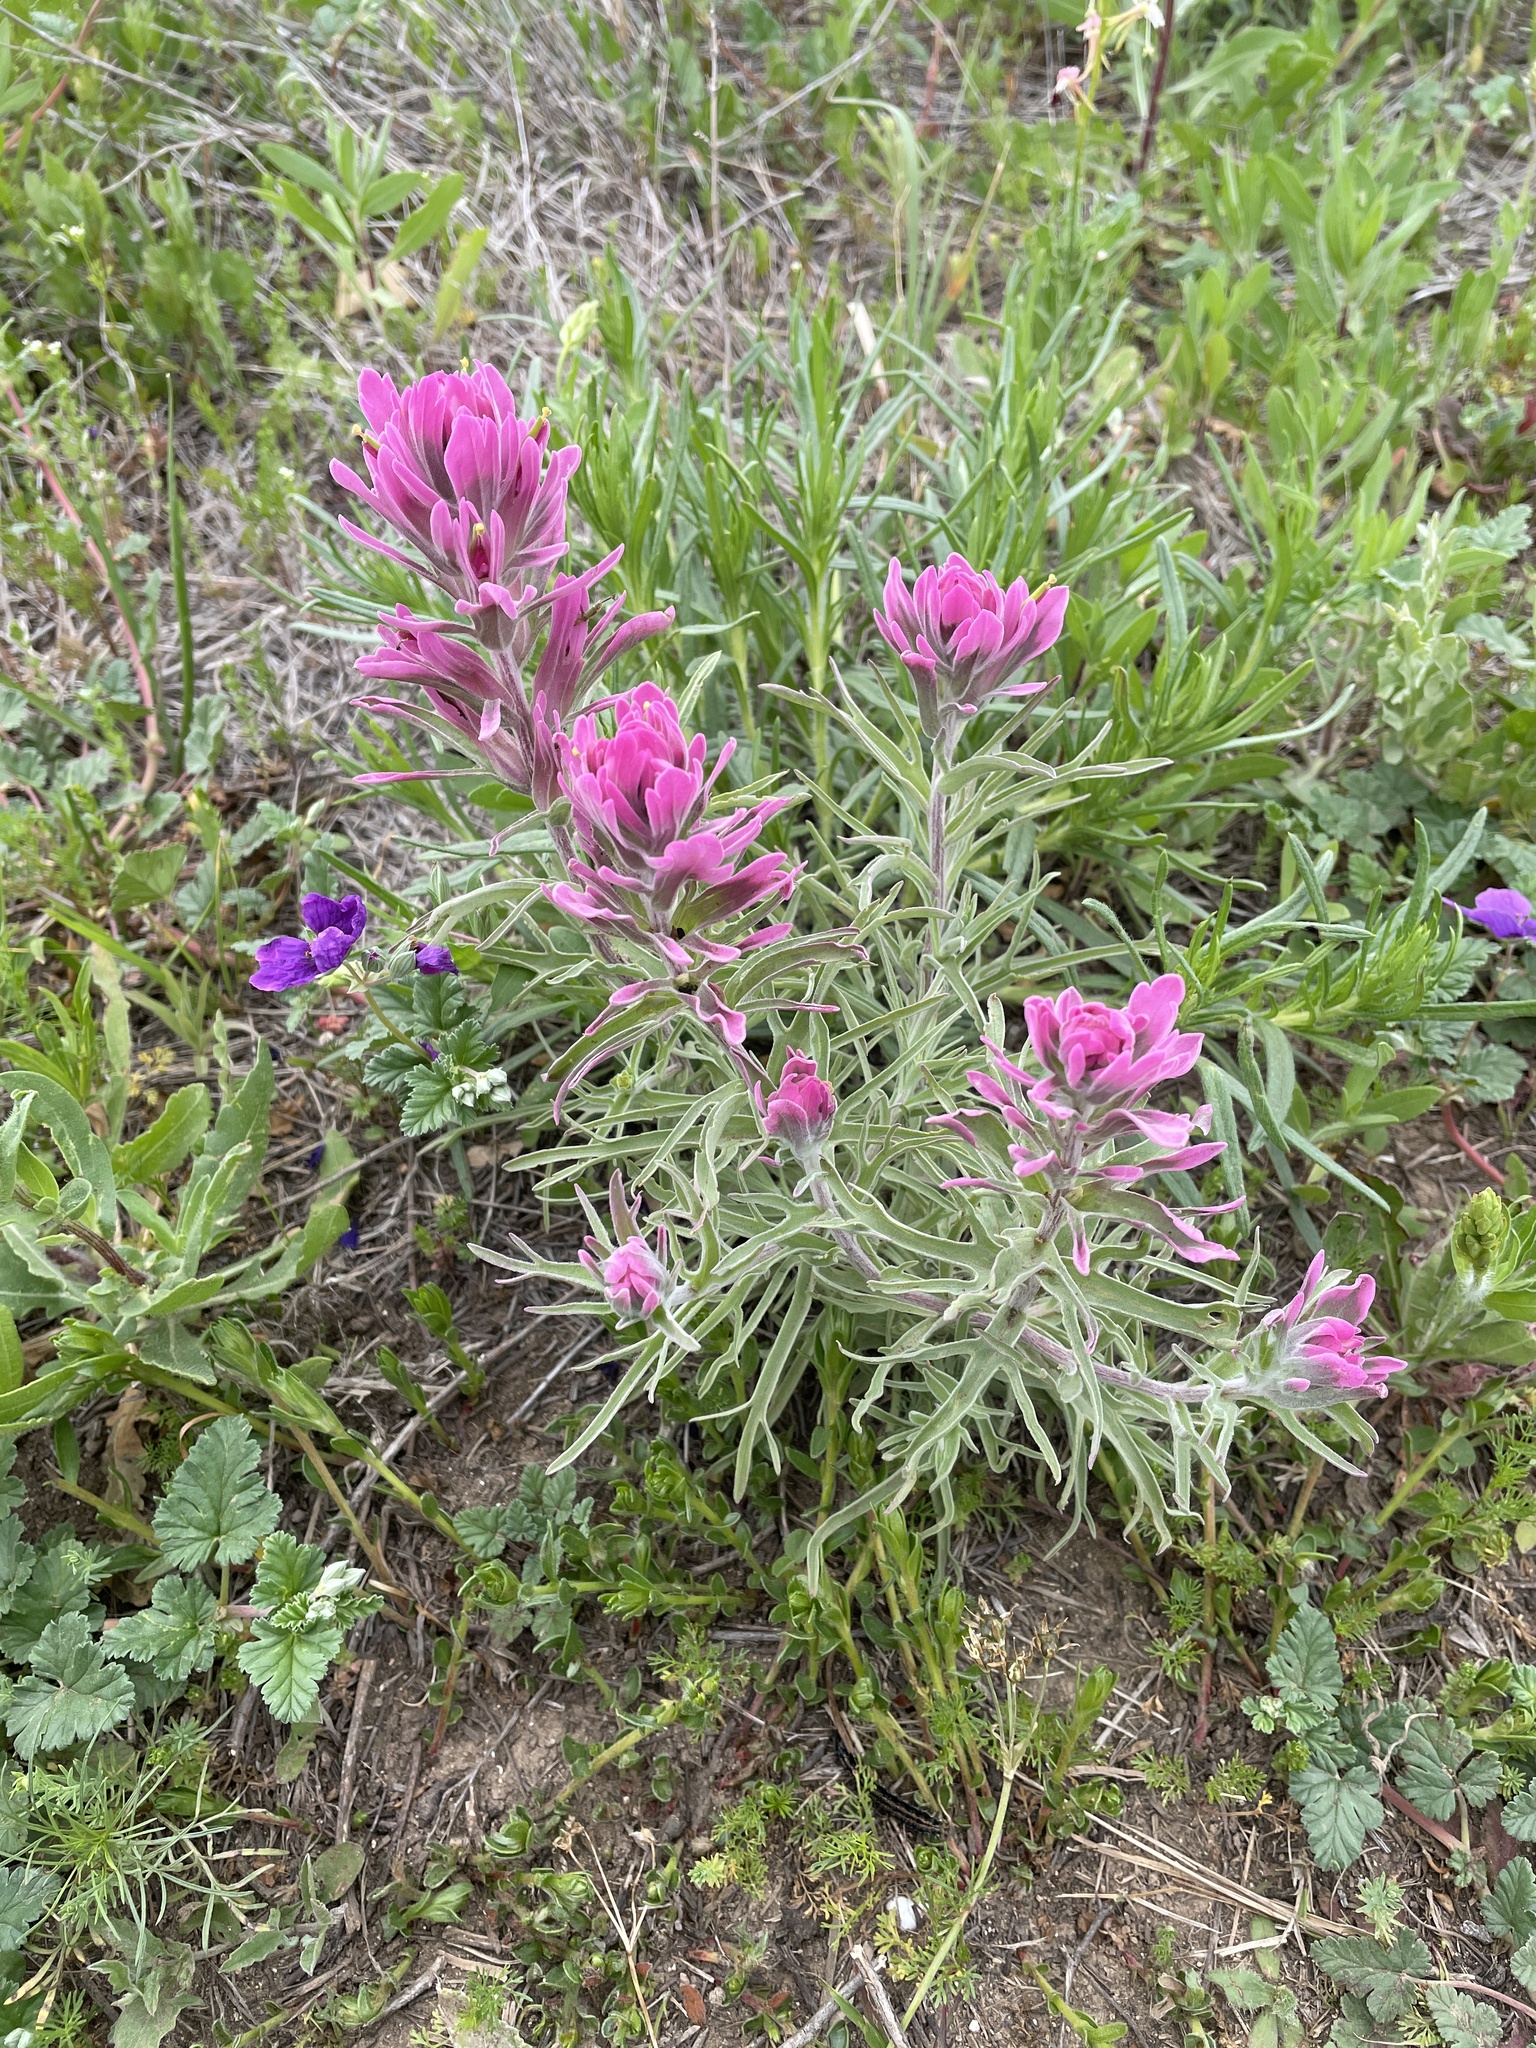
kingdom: Plantae
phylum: Tracheophyta
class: Magnoliopsida
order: Lamiales
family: Orobanchaceae
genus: Castilleja
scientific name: Castilleja purpurea
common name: Plains paintbrush
